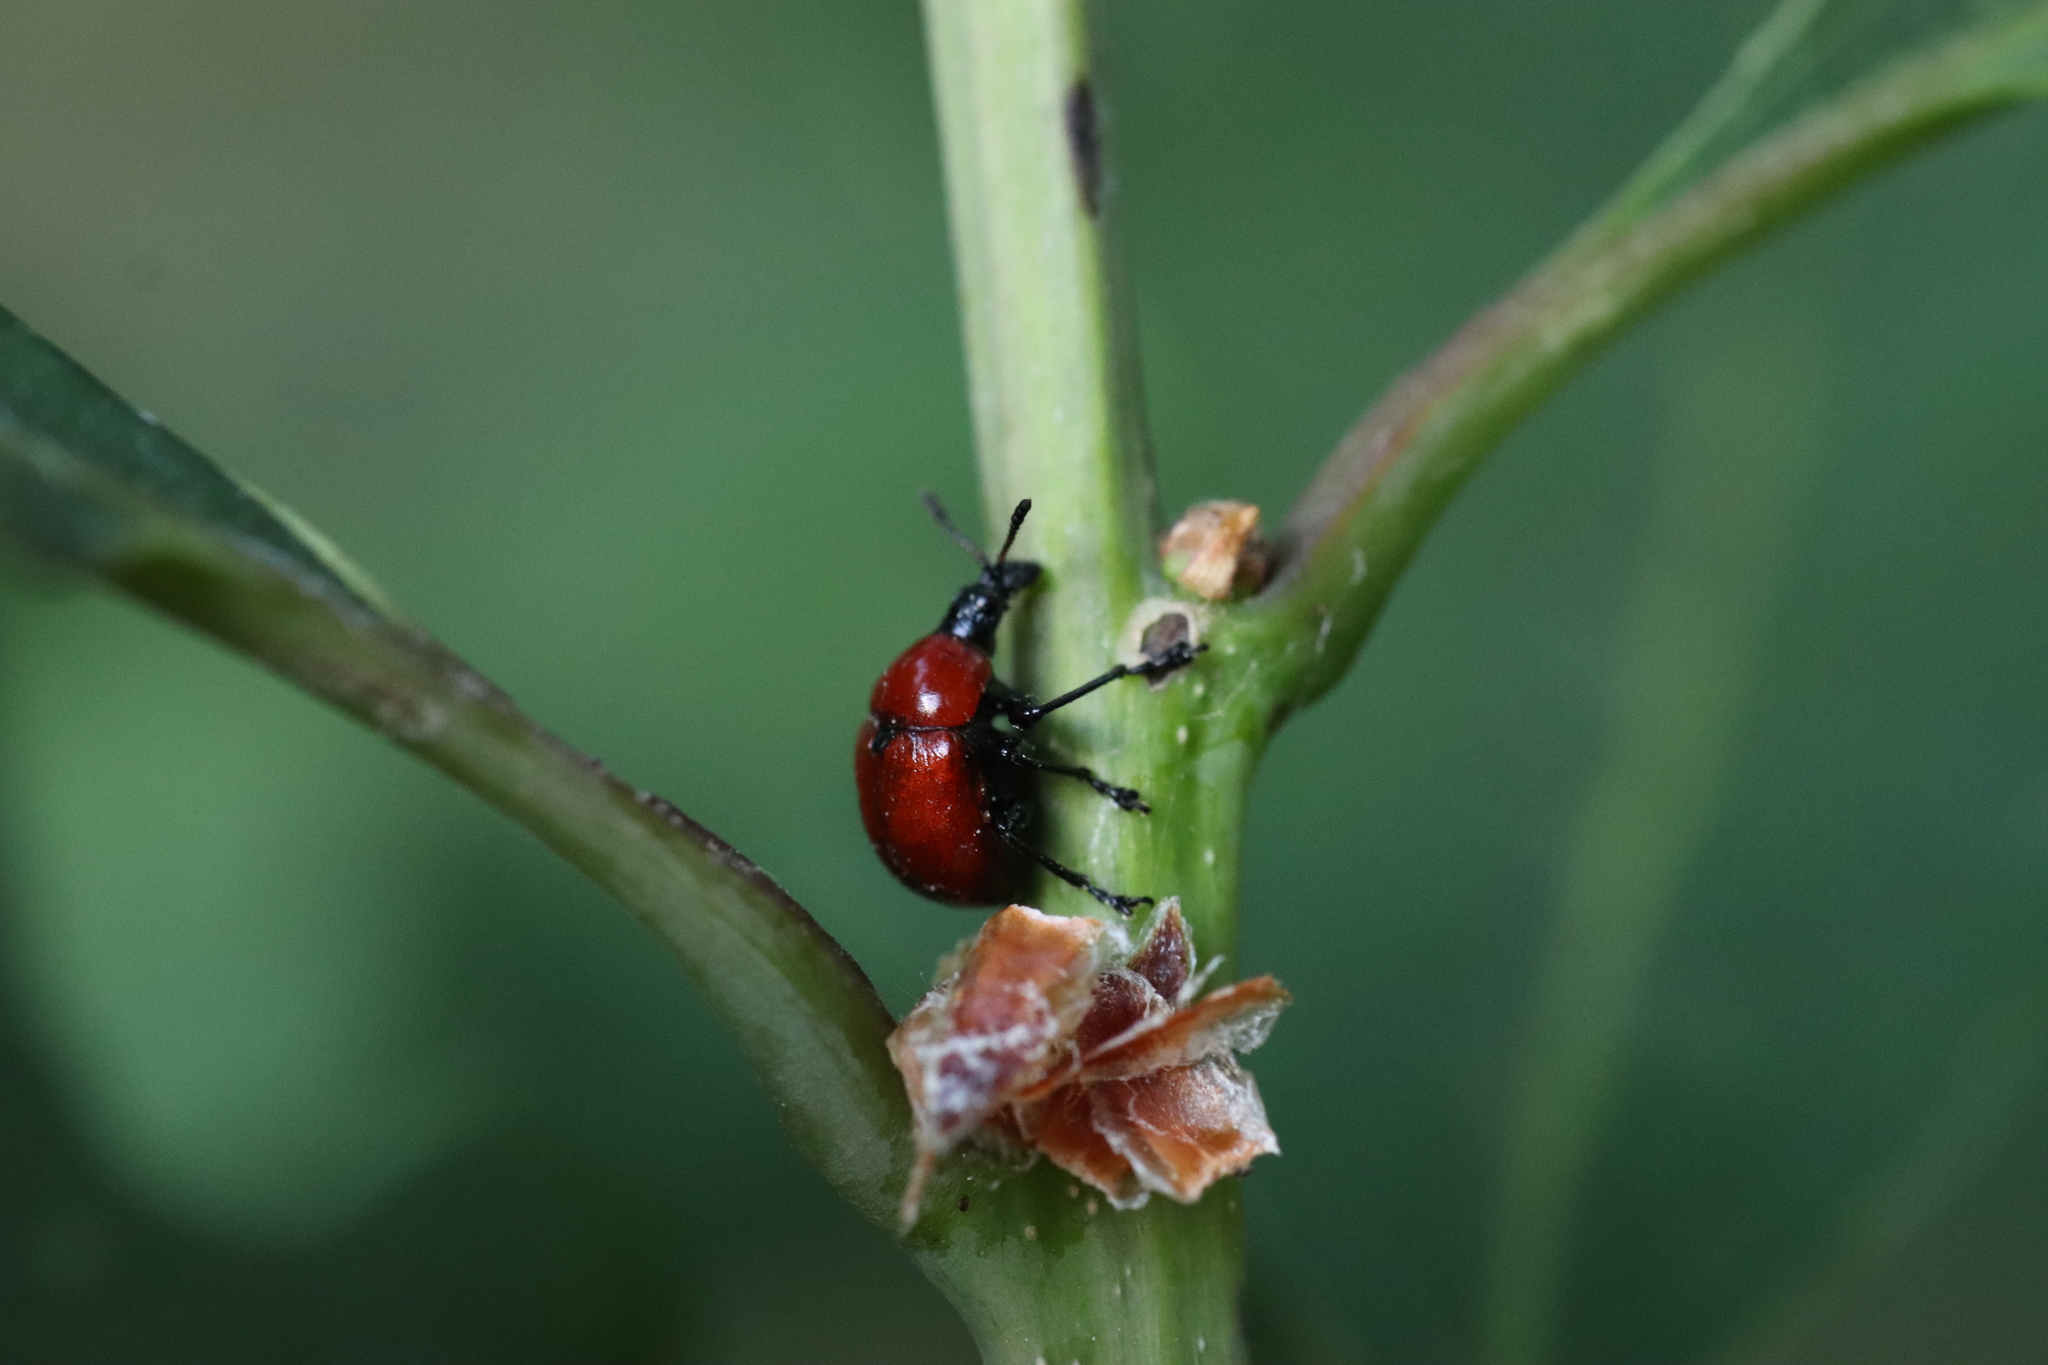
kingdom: Animalia
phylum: Arthropoda
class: Insecta
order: Coleoptera
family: Attelabidae
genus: Attelabus
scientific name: Attelabus nitens
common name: Oak leaf-roller
